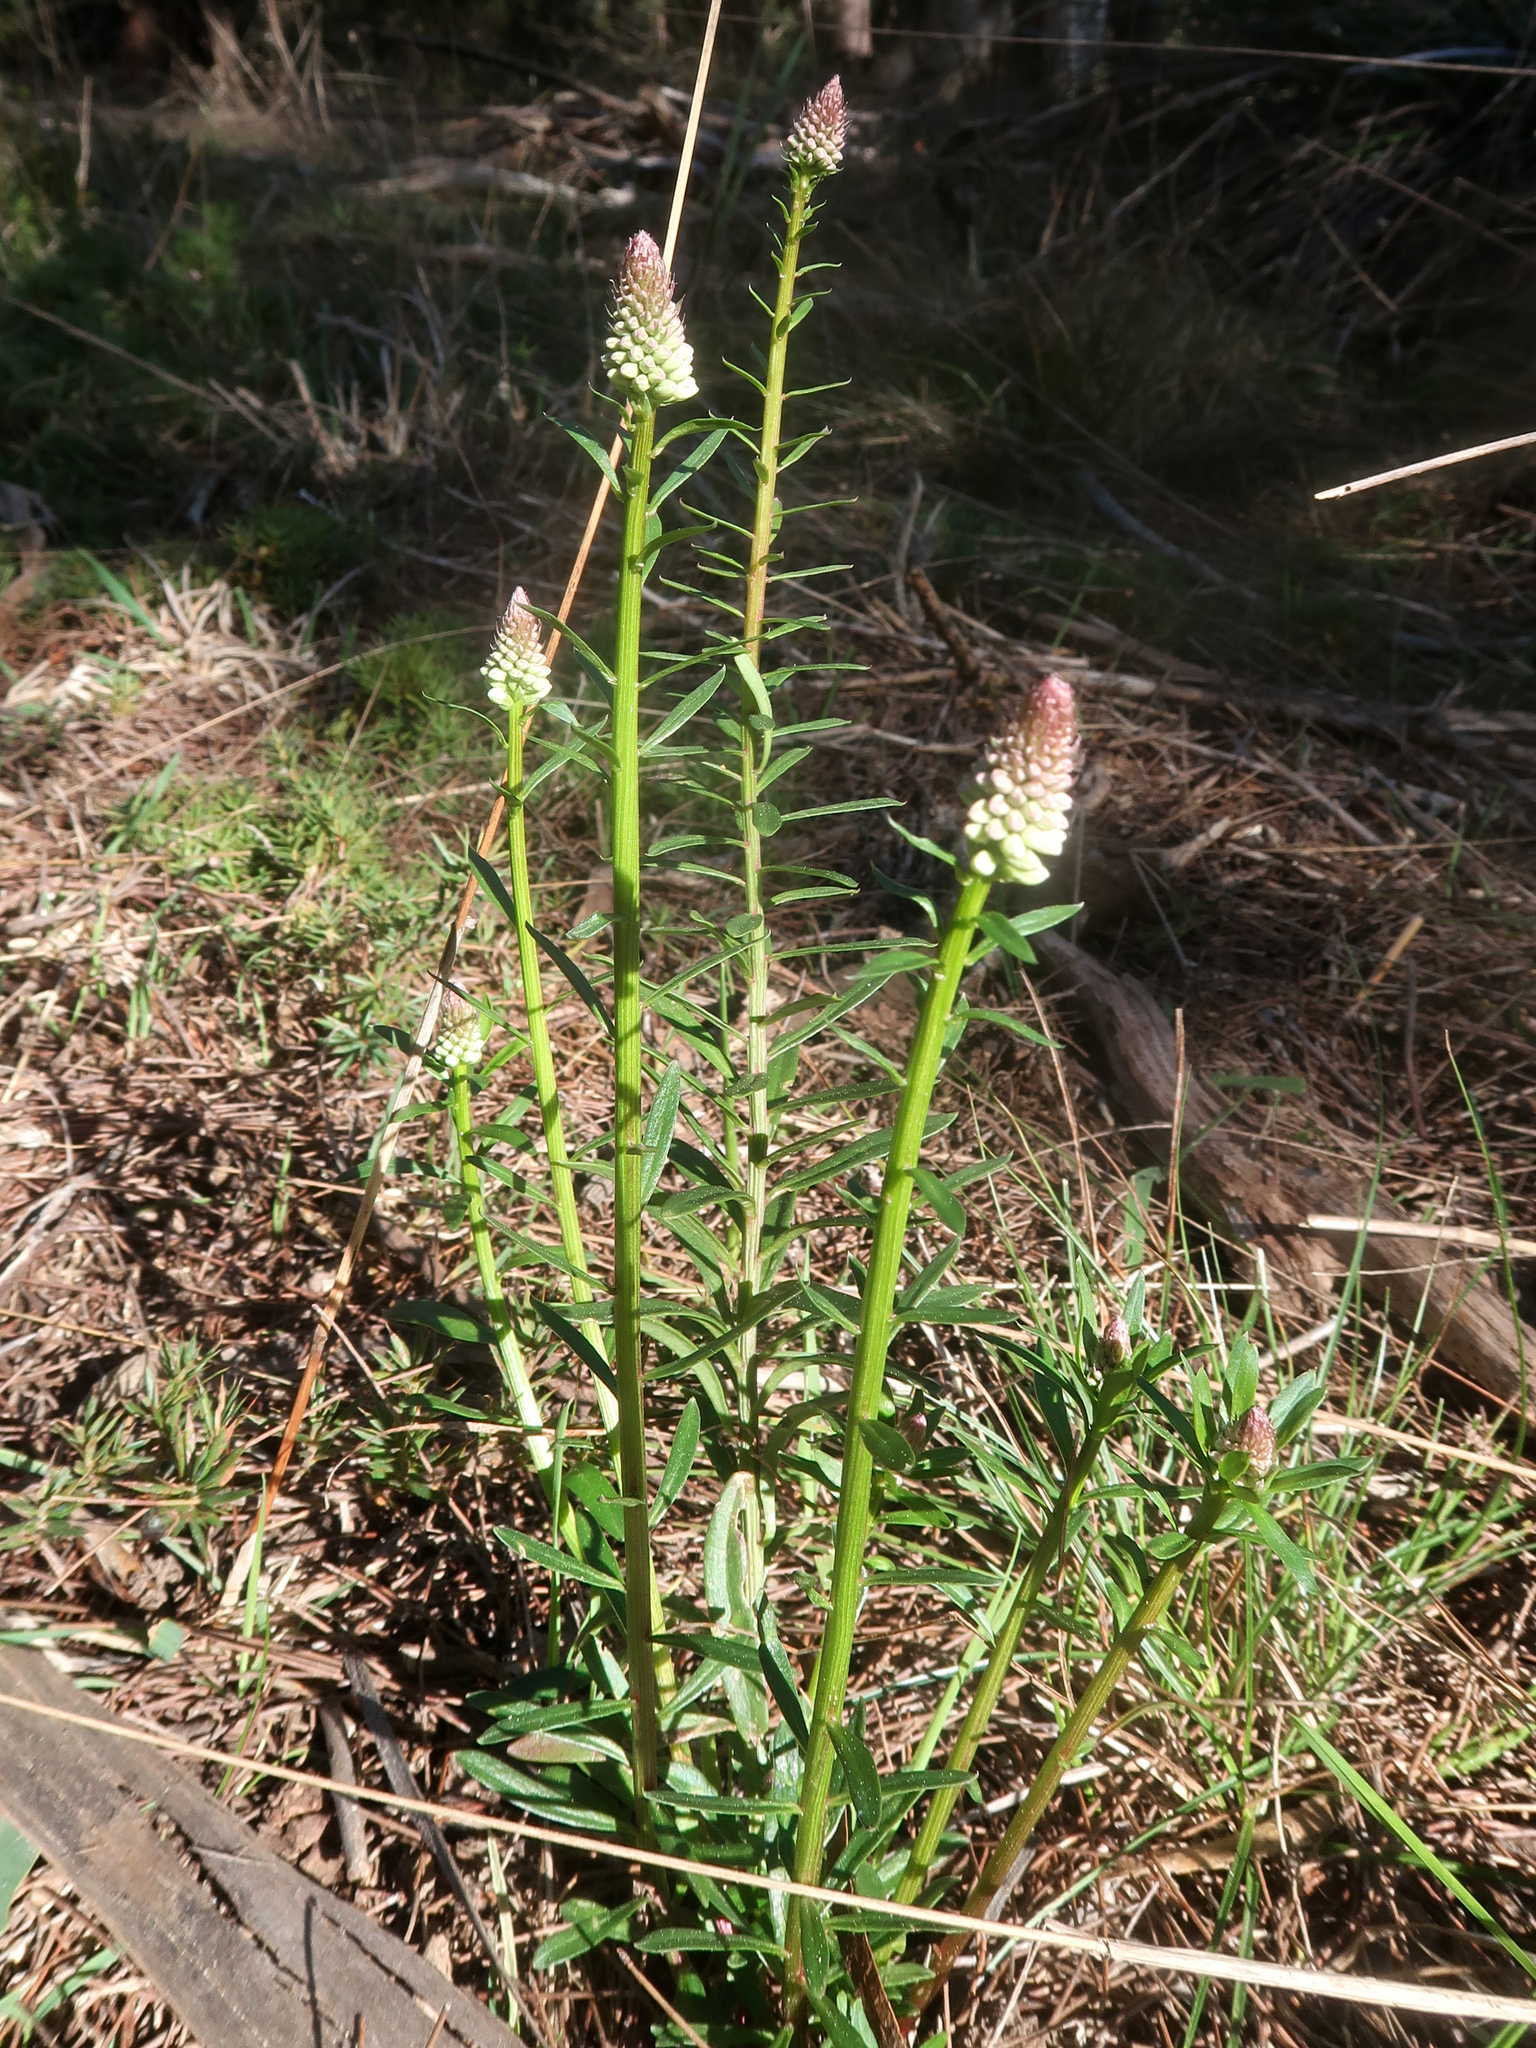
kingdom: Plantae
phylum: Tracheophyta
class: Magnoliopsida
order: Celastrales
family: Celastraceae
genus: Stackhousia
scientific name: Stackhousia monogyna
